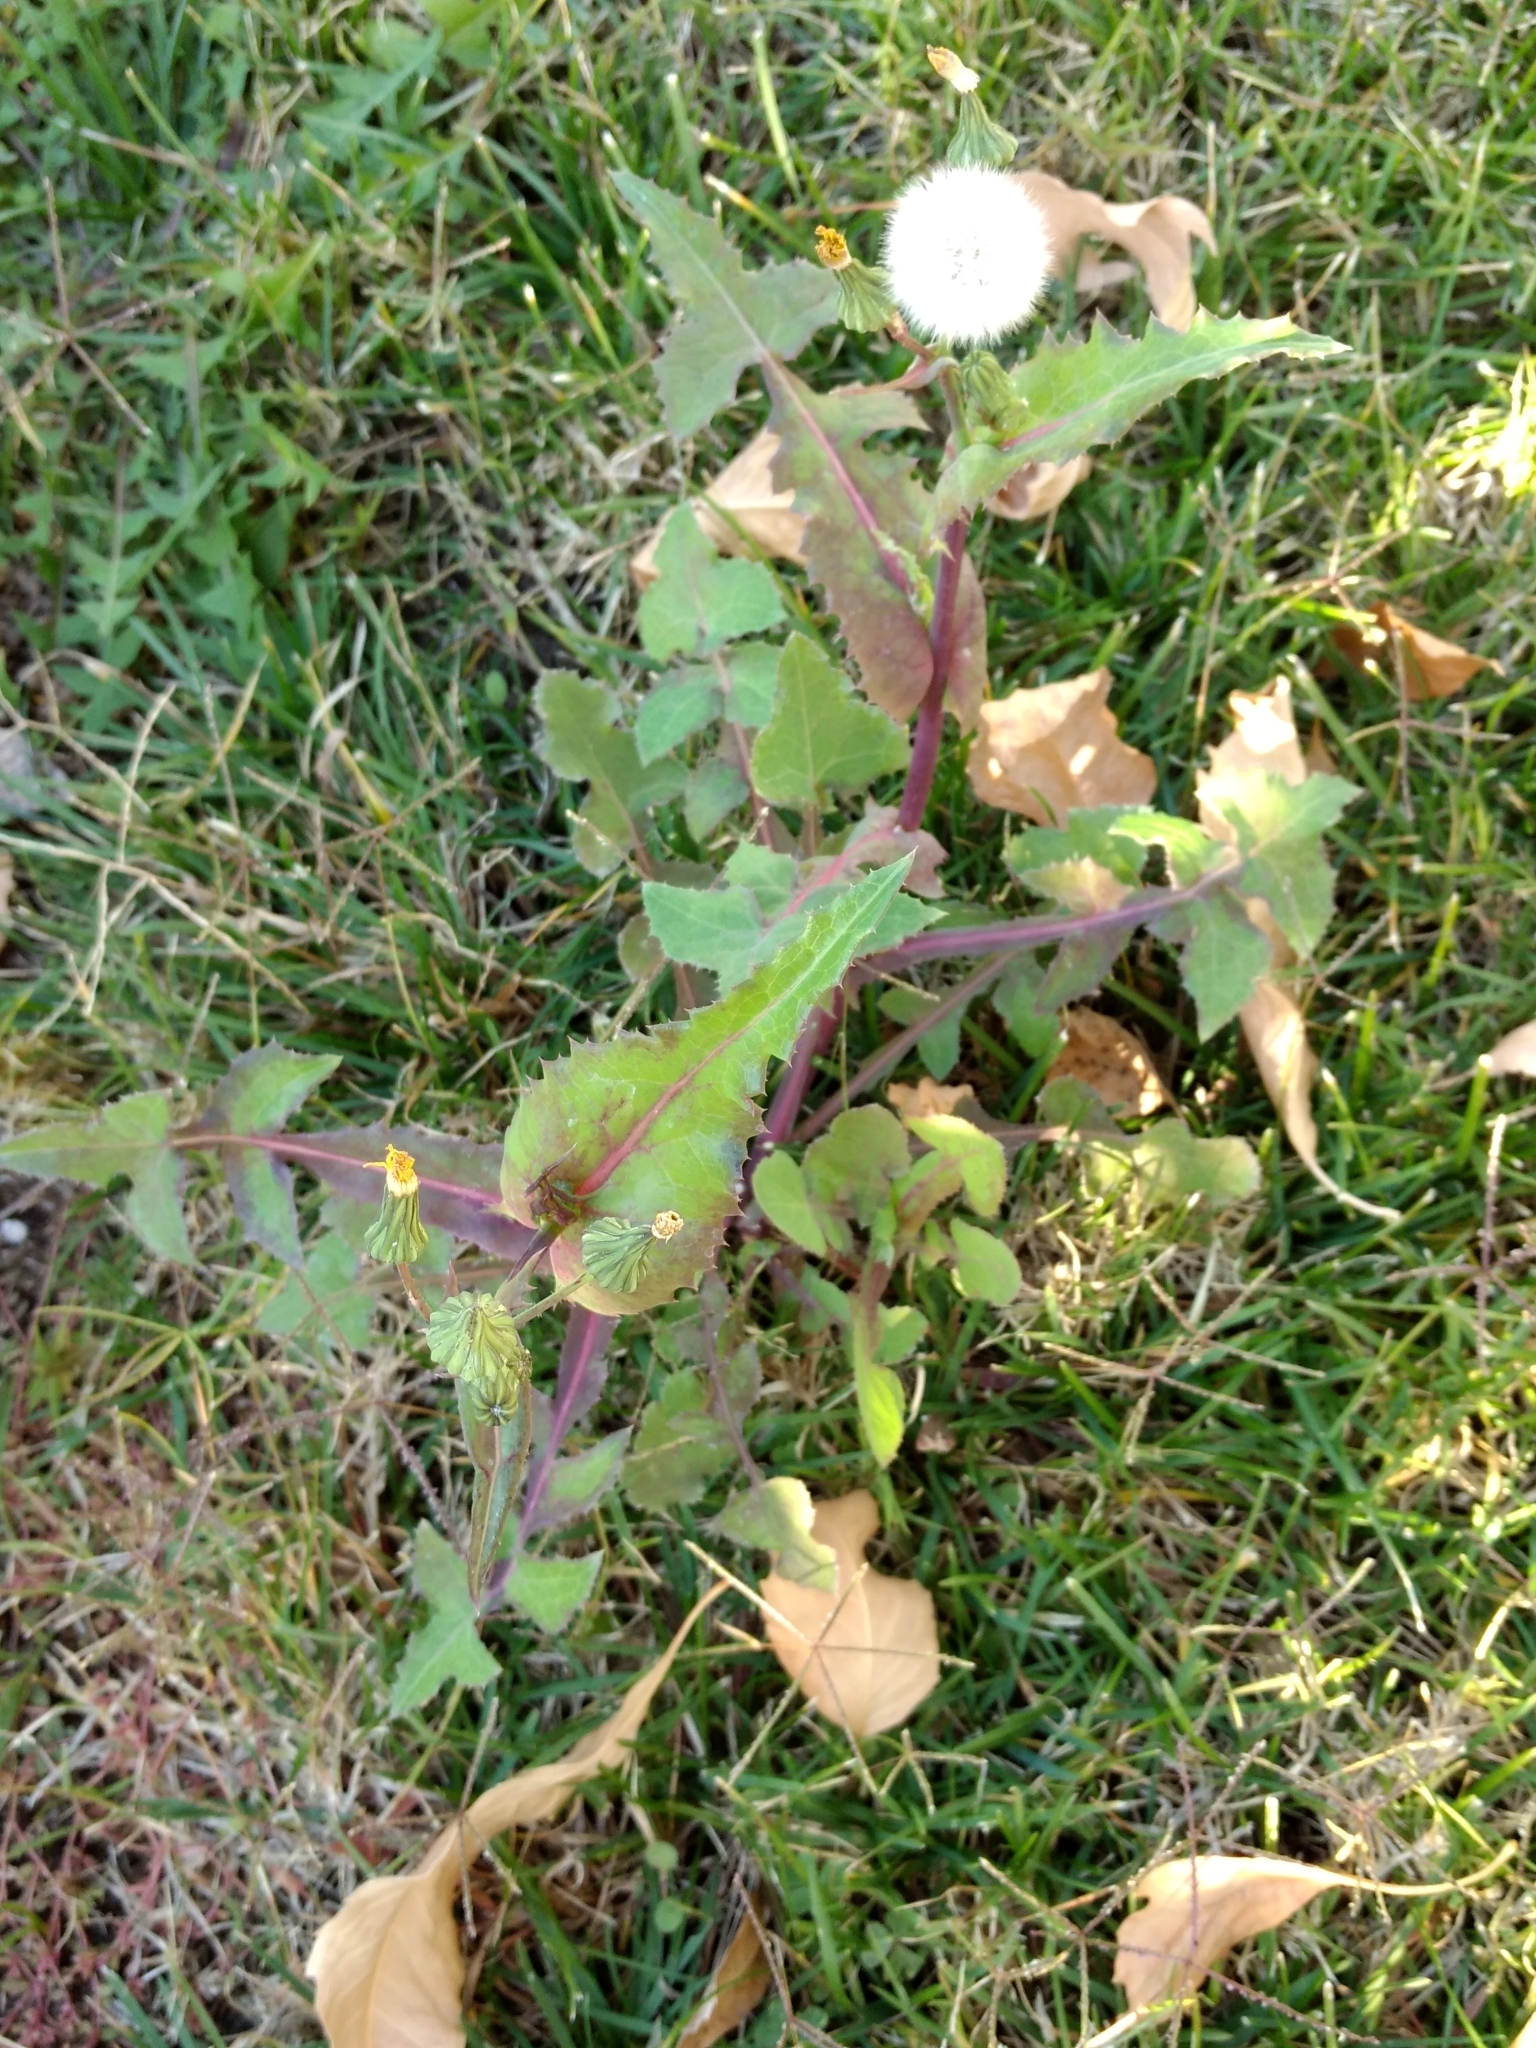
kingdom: Plantae
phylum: Tracheophyta
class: Magnoliopsida
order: Asterales
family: Asteraceae
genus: Sonchus
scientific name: Sonchus oleraceus
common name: Common sowthistle
